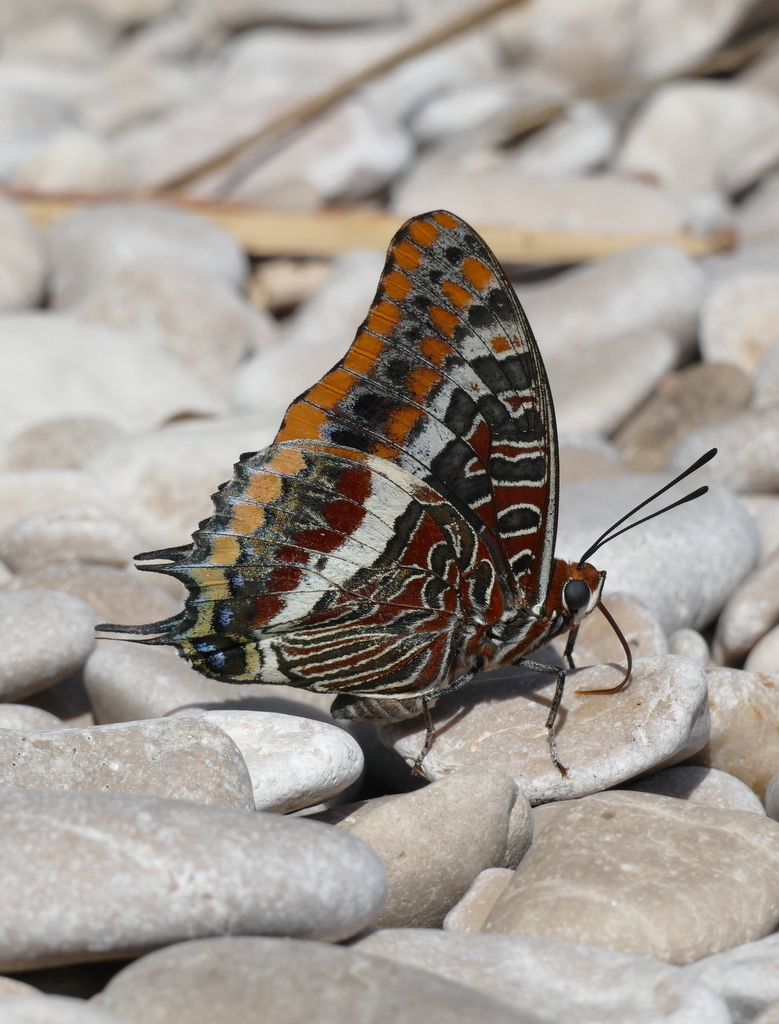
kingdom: Animalia
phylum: Arthropoda
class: Insecta
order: Lepidoptera
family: Nymphalidae
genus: Charaxes
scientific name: Charaxes jasius
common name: Two tailed pasha
